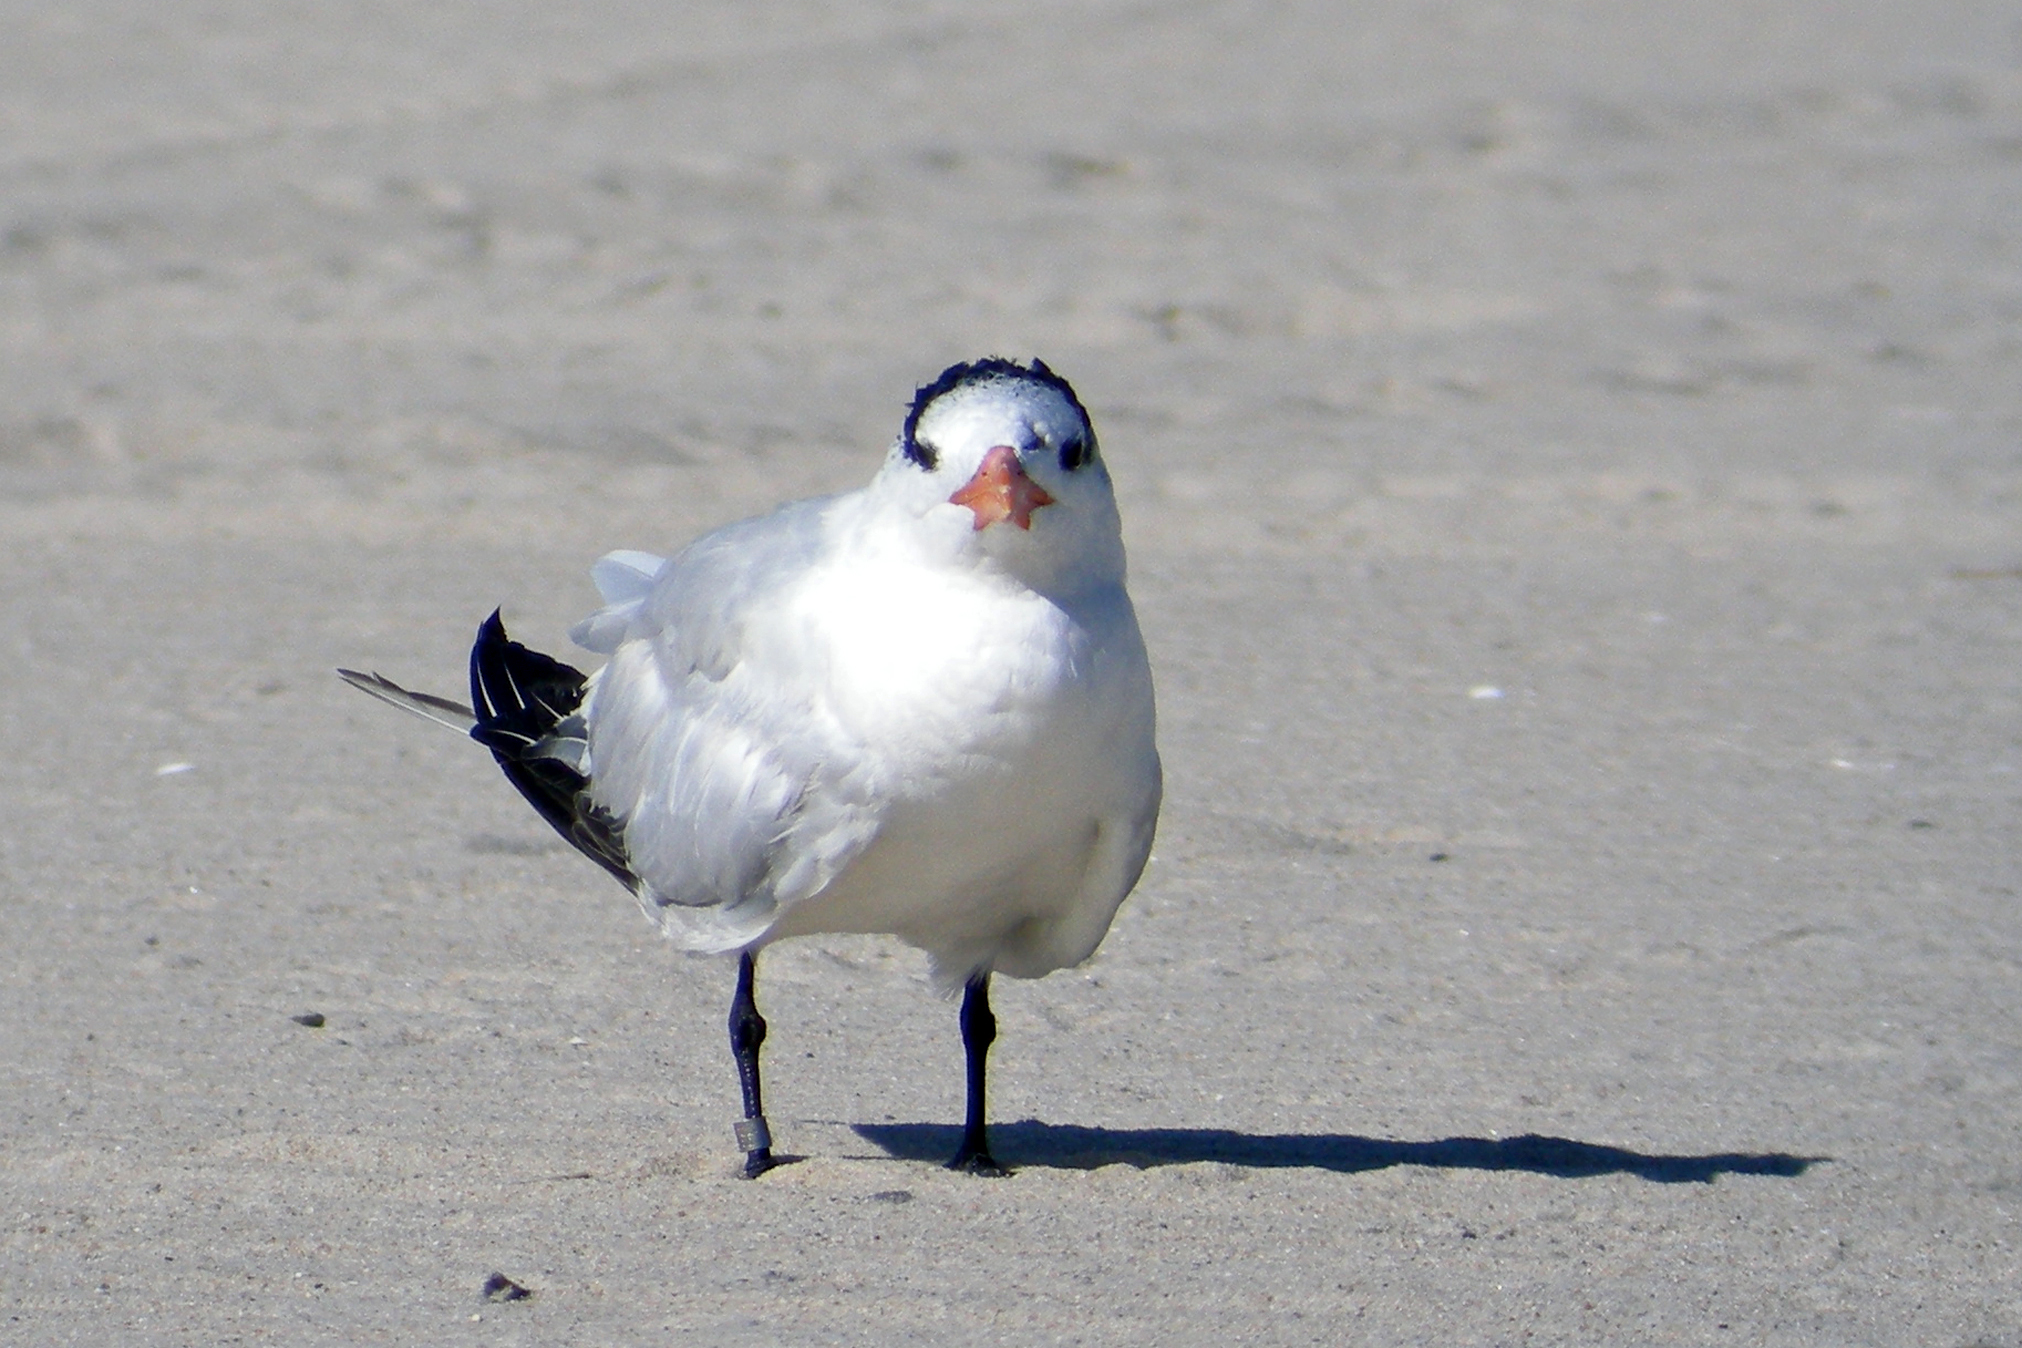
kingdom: Animalia
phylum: Chordata
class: Aves
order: Charadriiformes
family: Laridae
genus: Thalasseus
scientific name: Thalasseus maximus
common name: Royal tern
